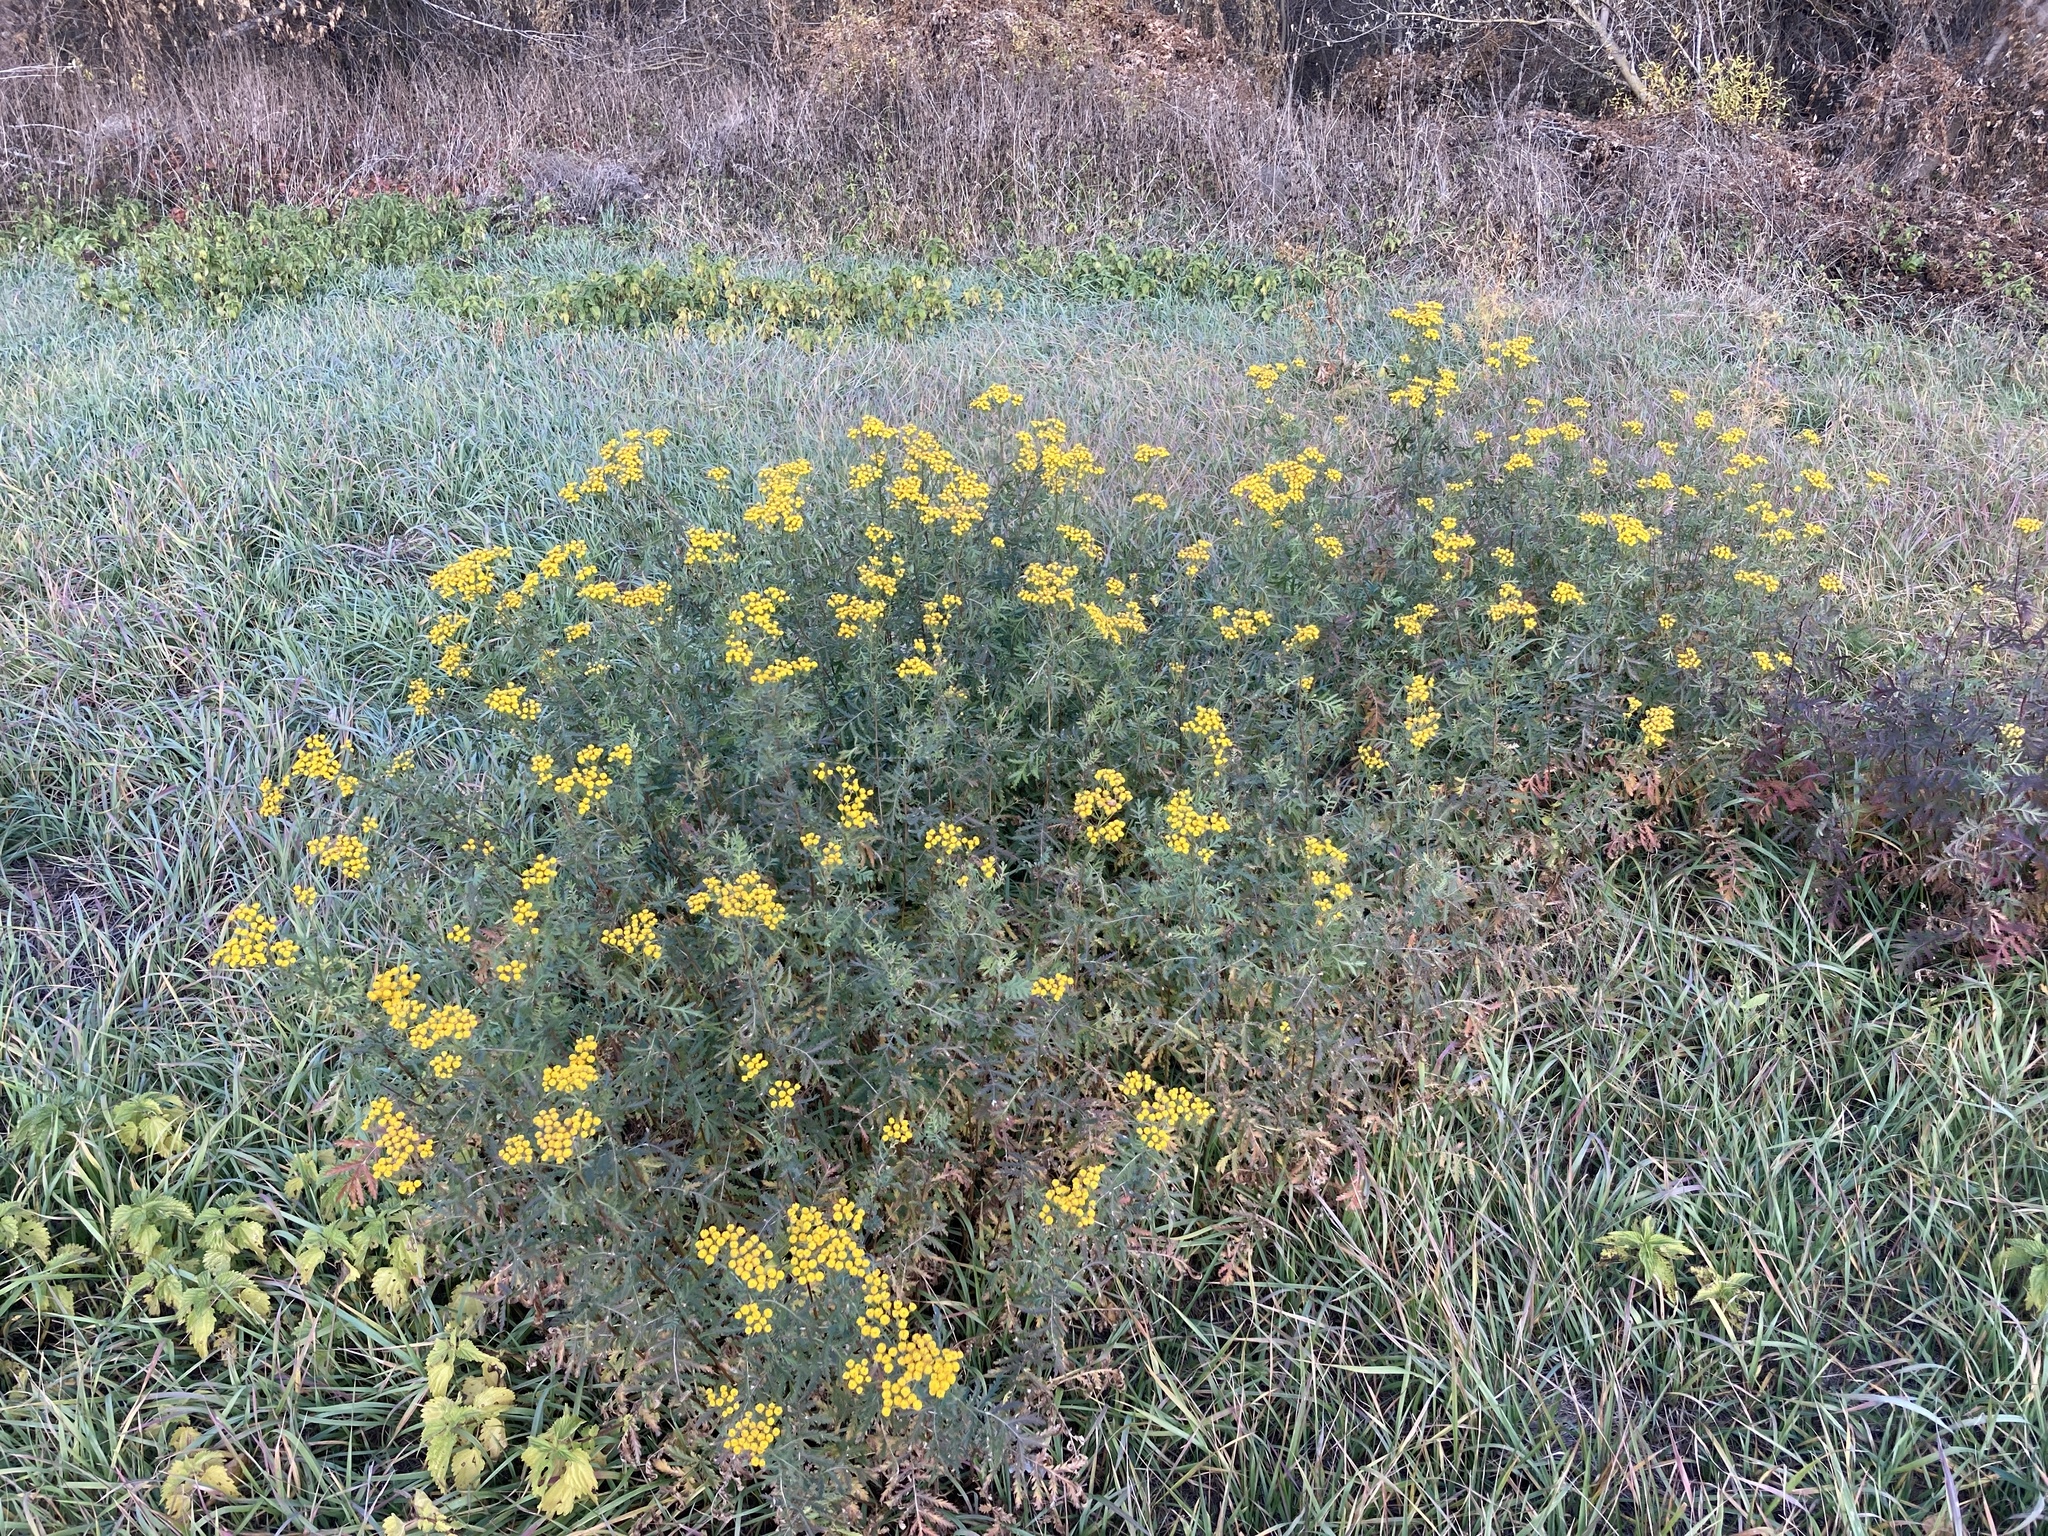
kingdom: Plantae
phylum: Tracheophyta
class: Magnoliopsida
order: Asterales
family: Asteraceae
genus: Tanacetum
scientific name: Tanacetum vulgare
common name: Common tansy
